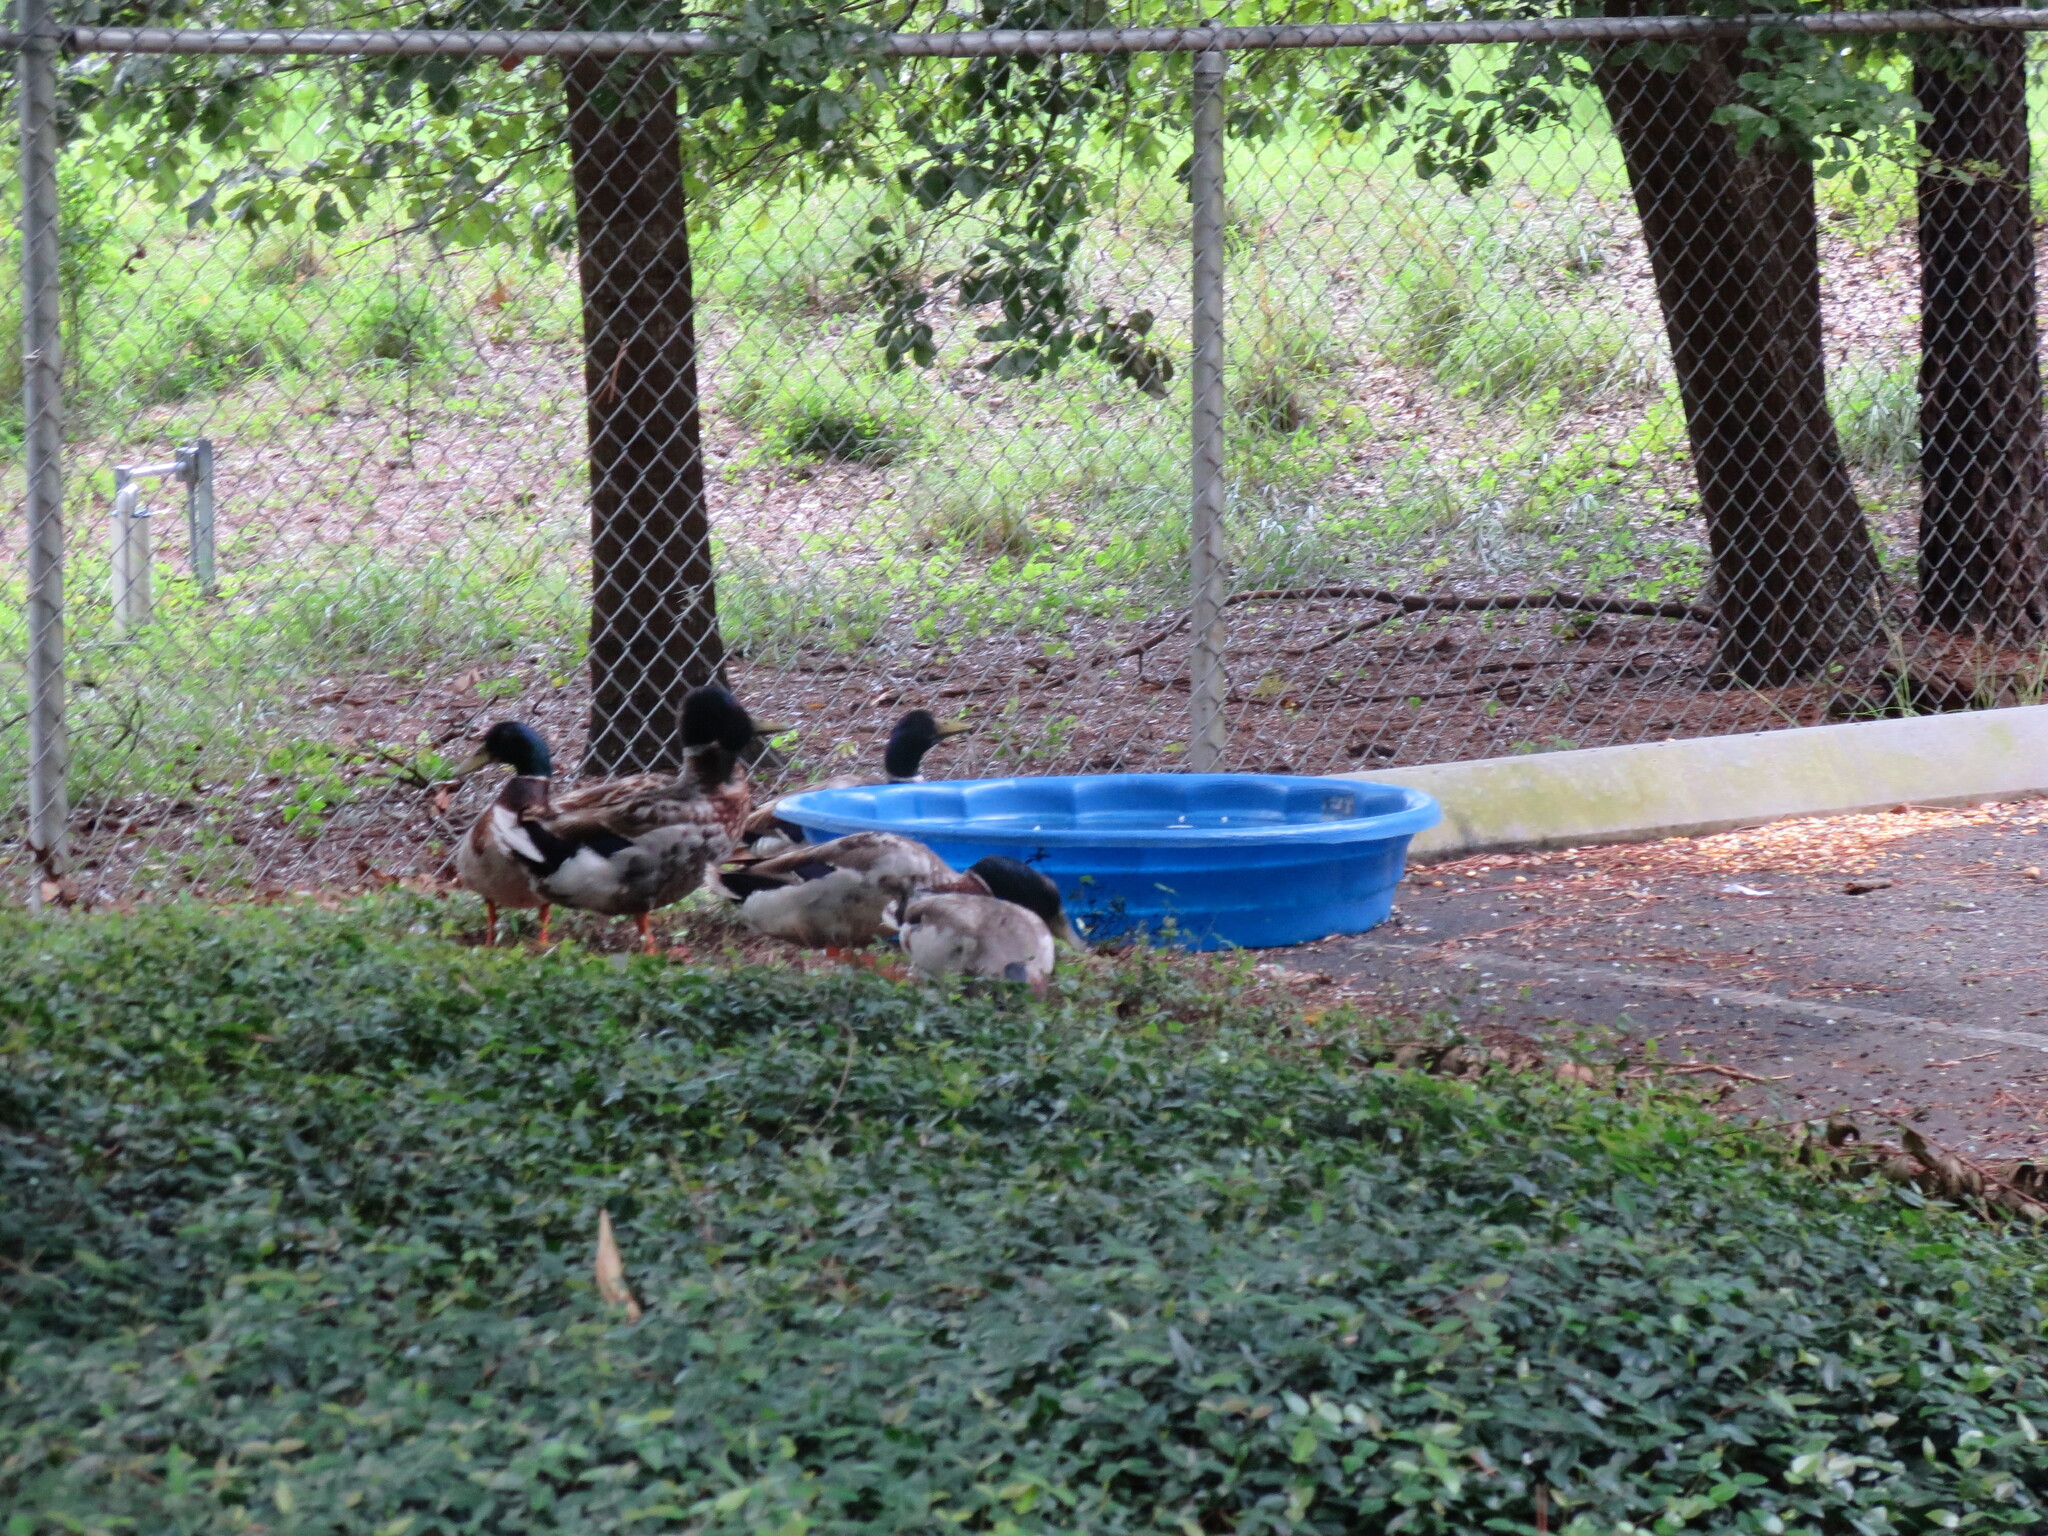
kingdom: Animalia
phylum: Chordata
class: Aves
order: Anseriformes
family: Anatidae
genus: Anas
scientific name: Anas platyrhynchos
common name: Mallard
